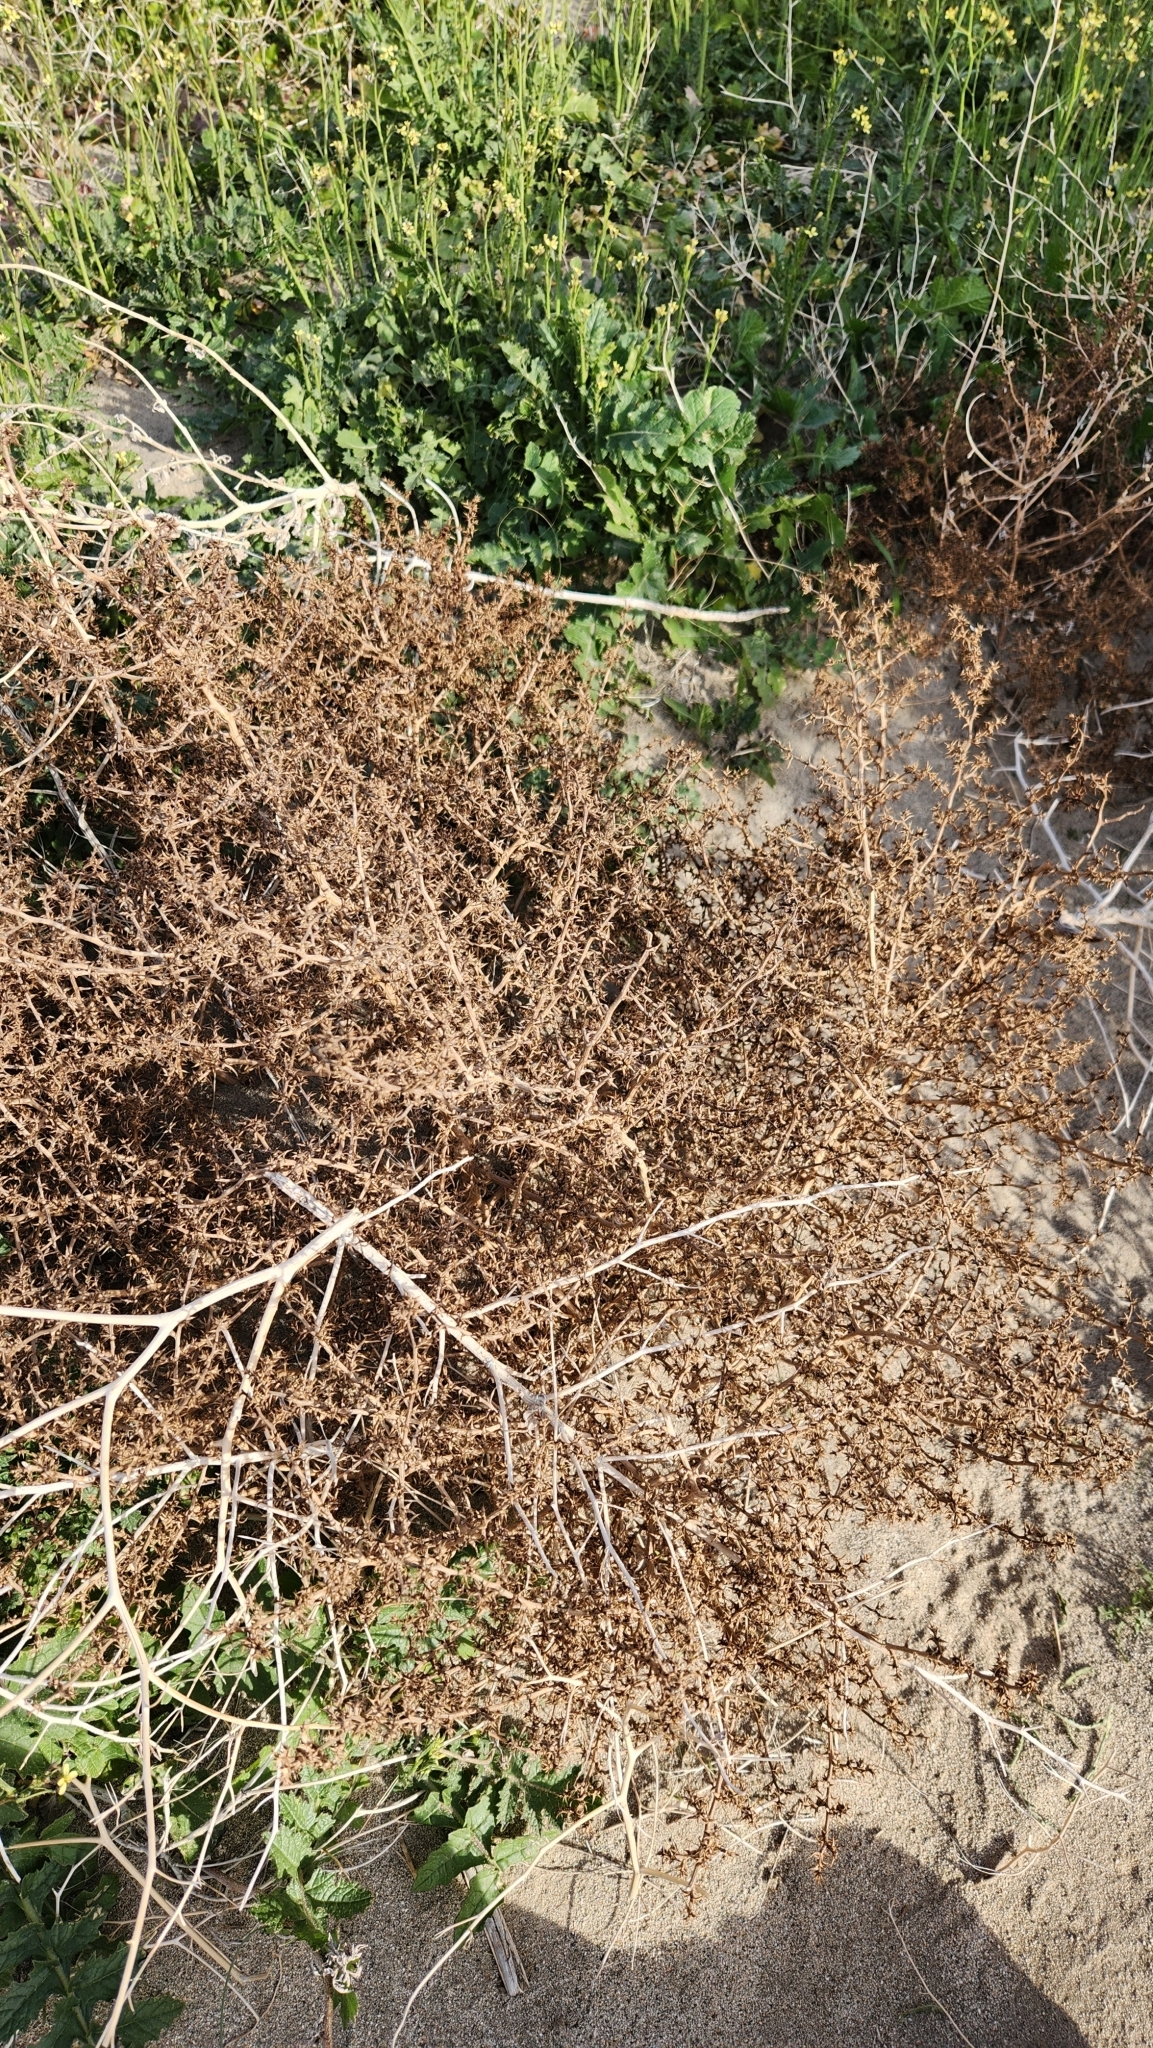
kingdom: Plantae
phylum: Tracheophyta
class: Magnoliopsida
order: Caryophyllales
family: Amaranthaceae
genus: Salsola
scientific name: Salsola tragus
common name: Prickly russian thistle
